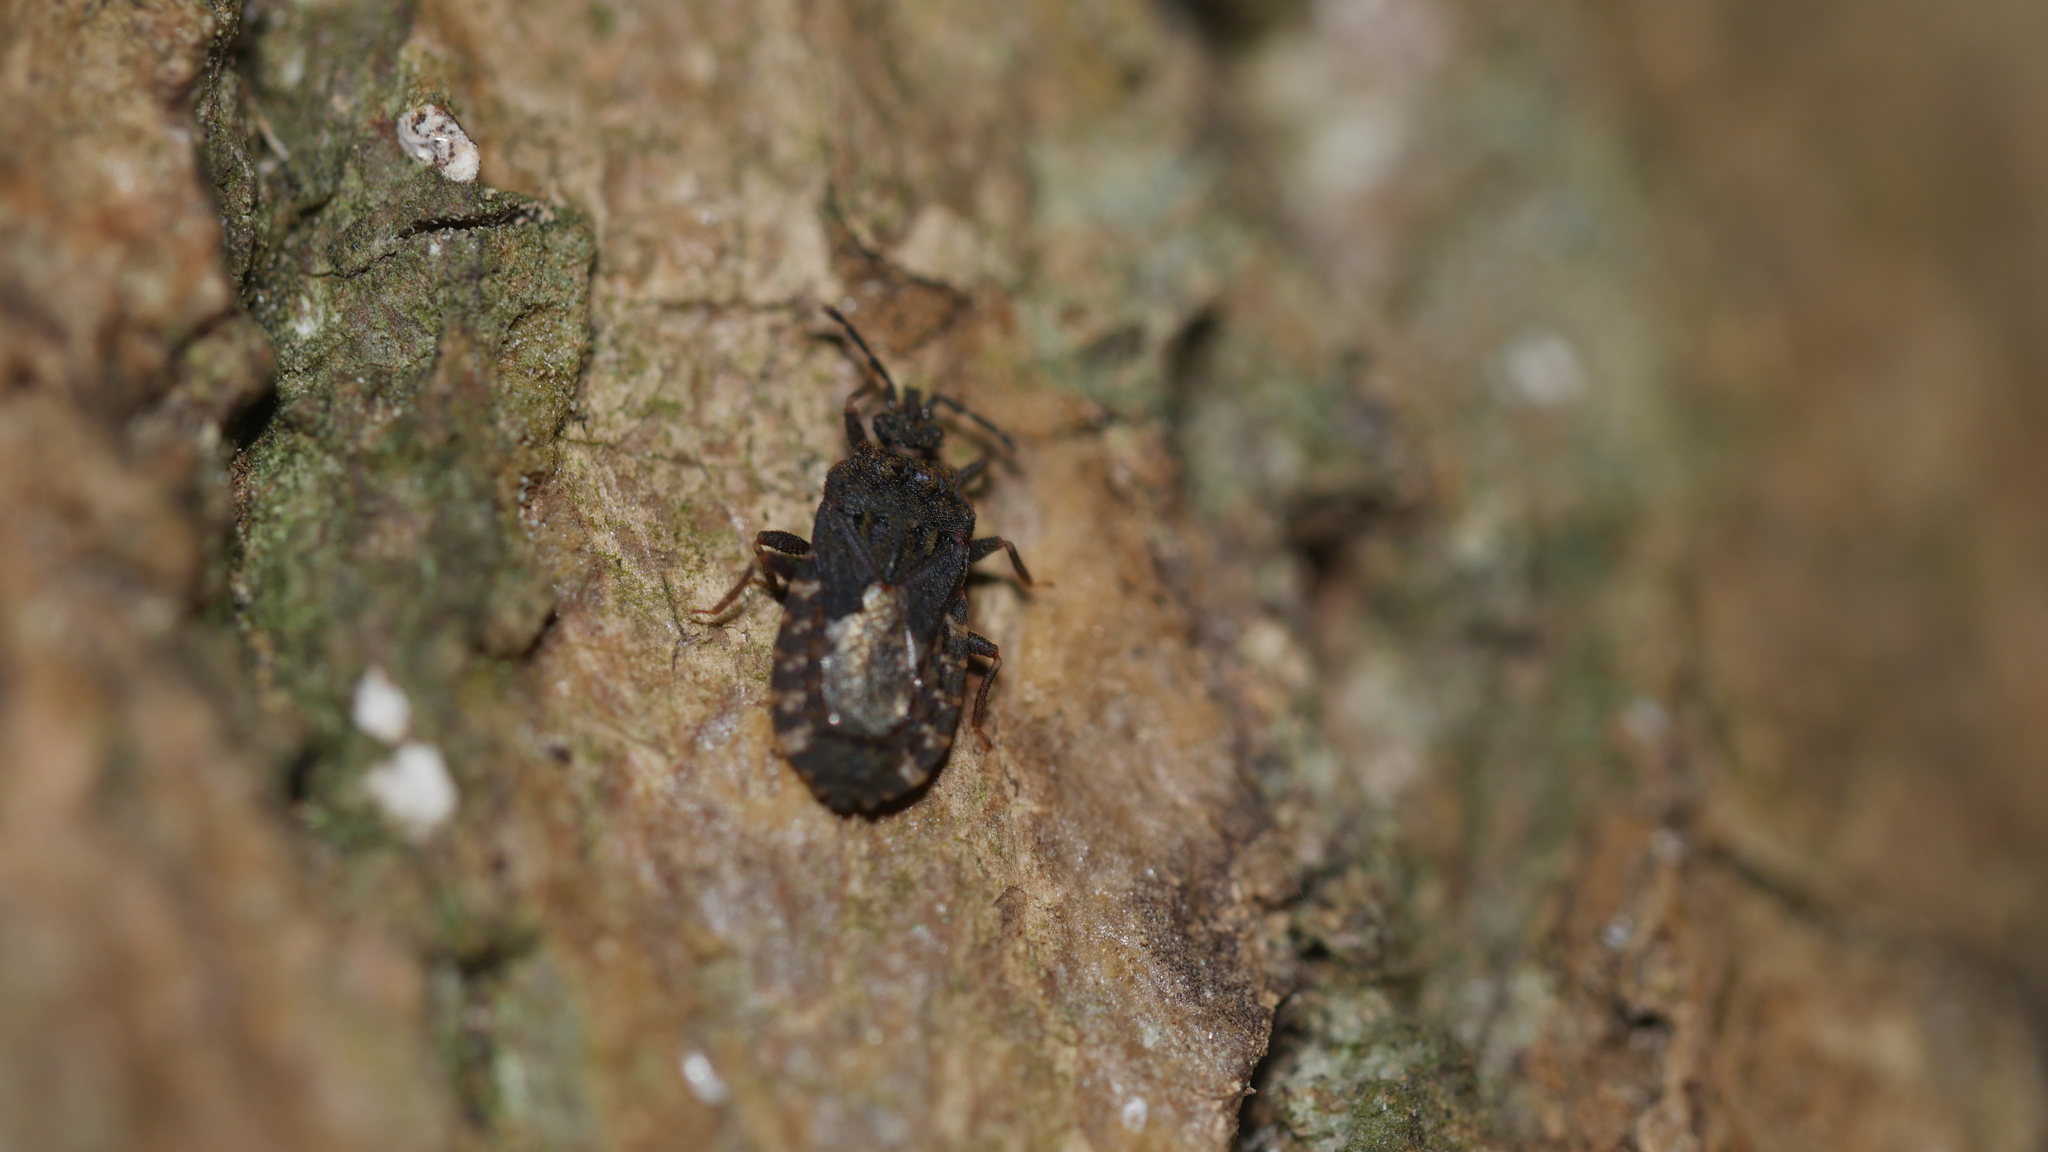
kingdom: Animalia
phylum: Arthropoda
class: Insecta
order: Hemiptera
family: Aradidae
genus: Mezira
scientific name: Mezira
